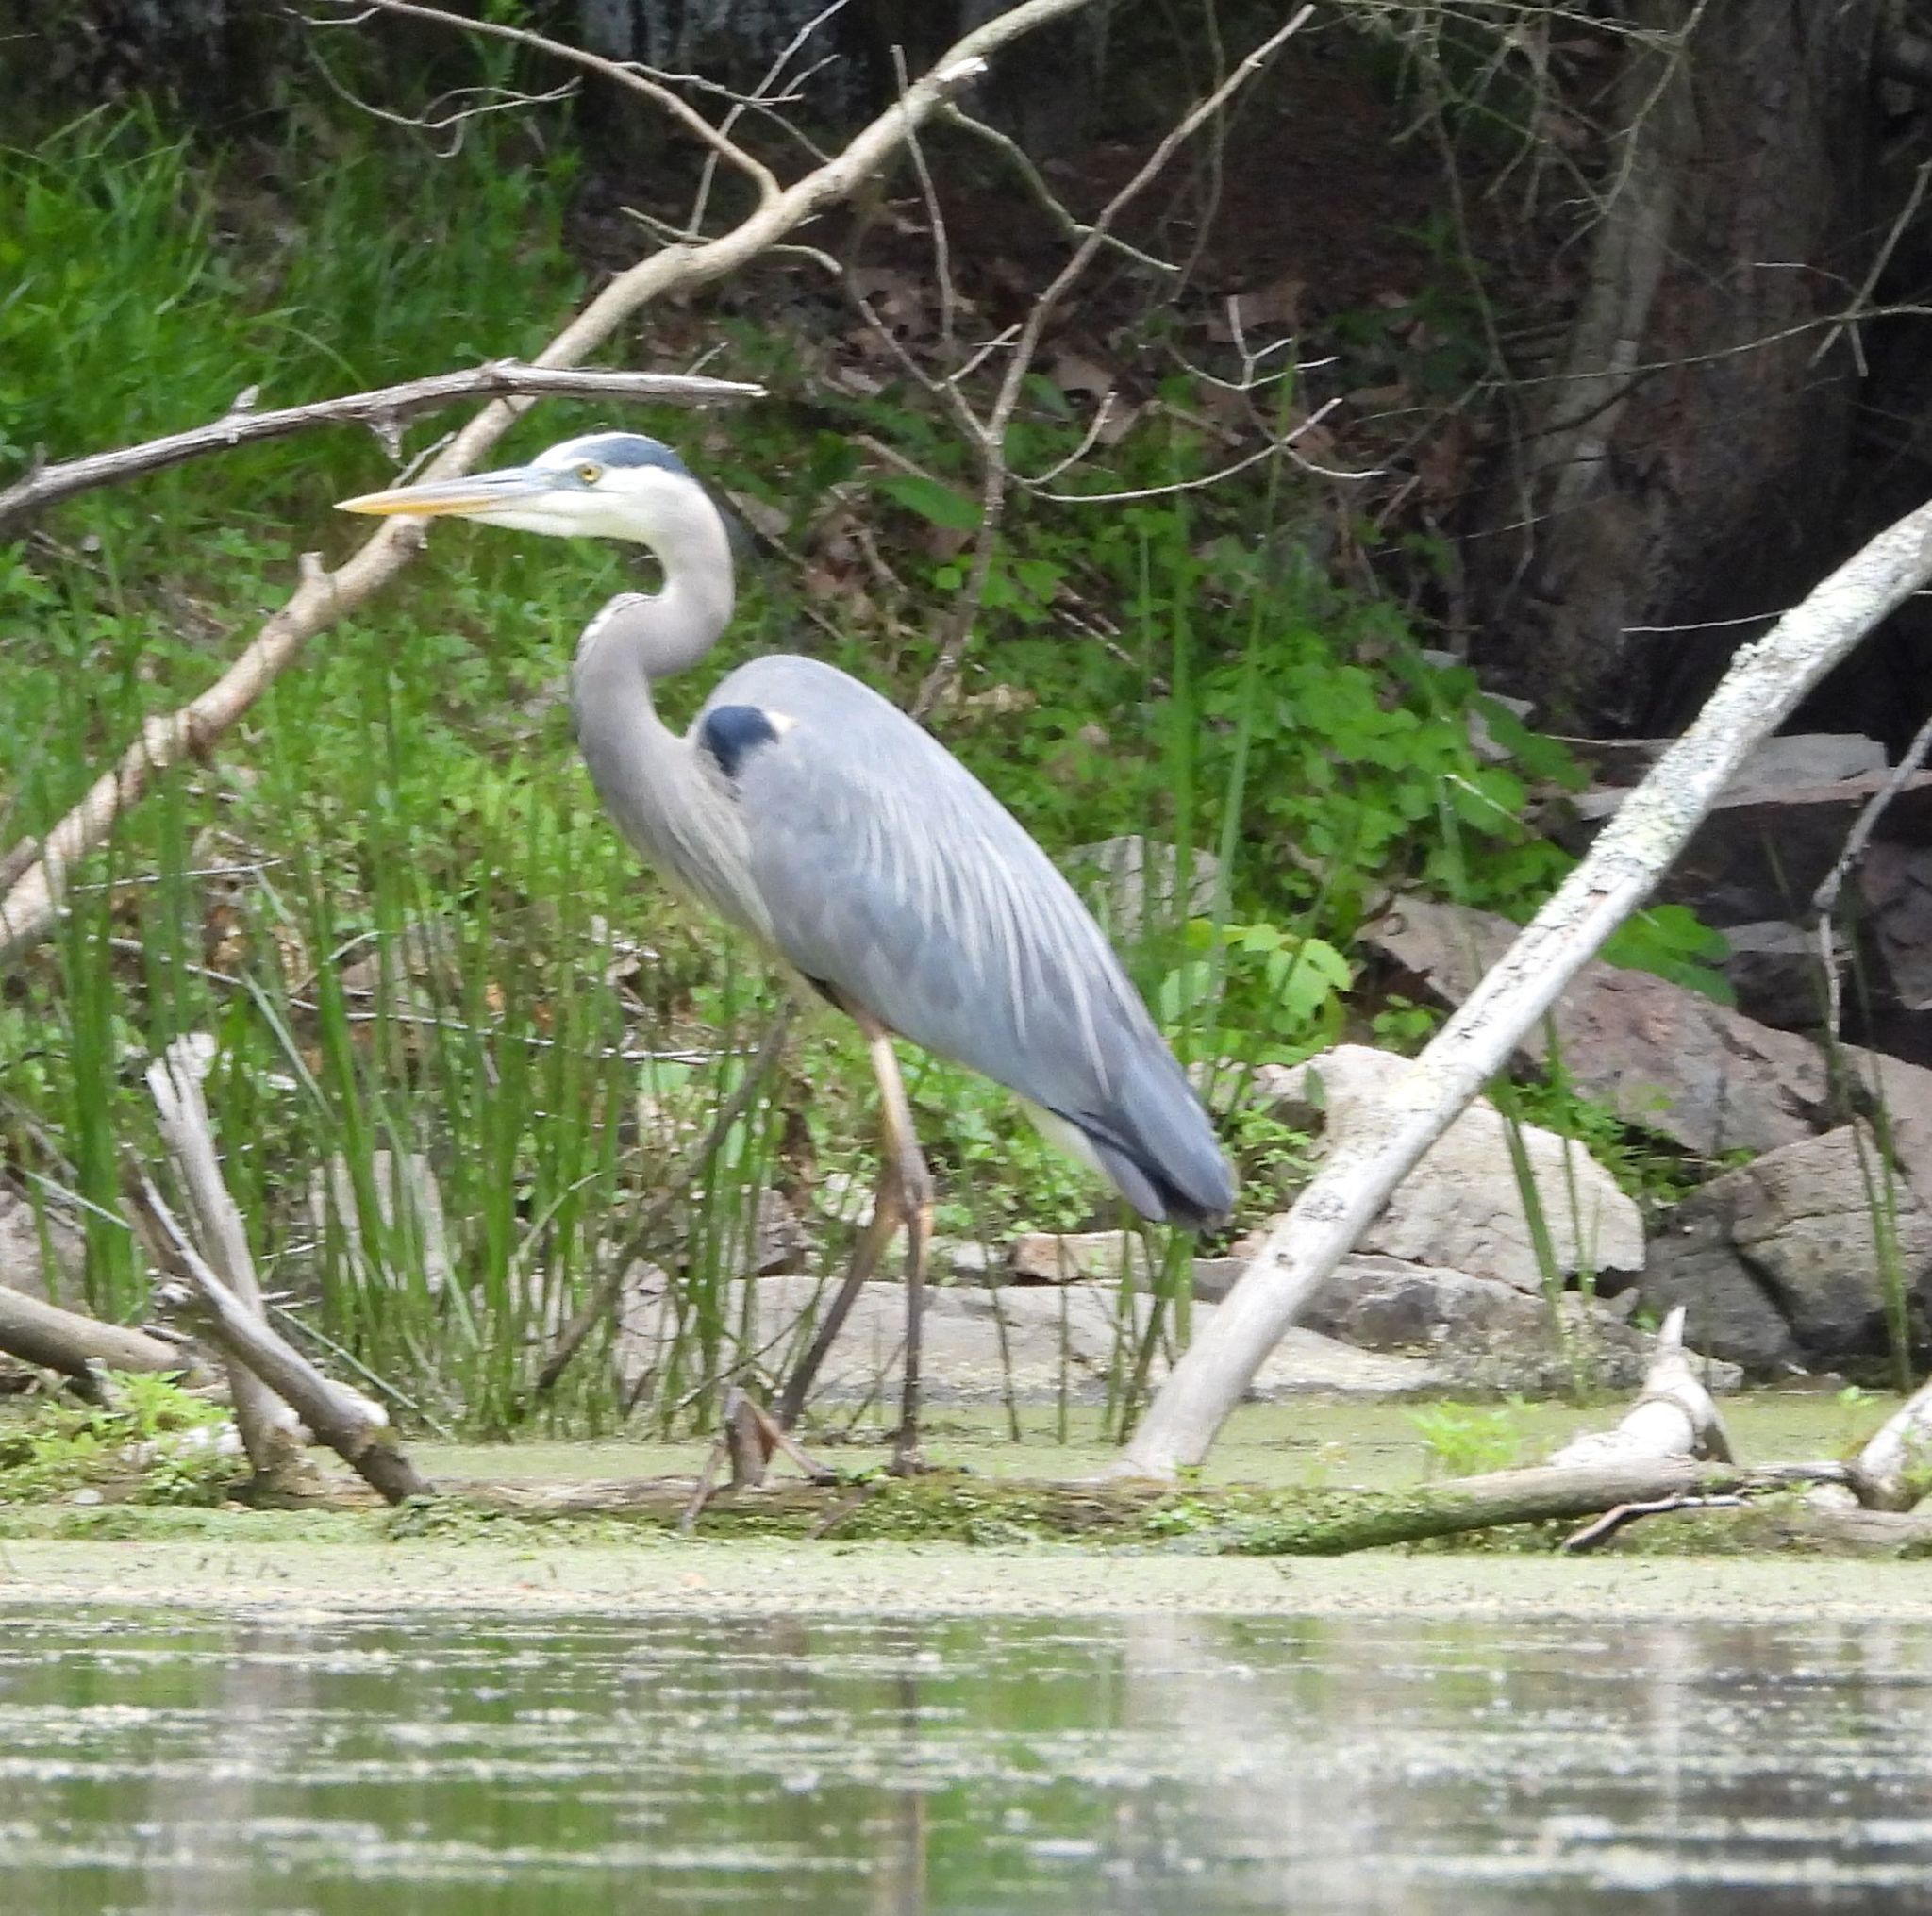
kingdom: Animalia
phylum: Chordata
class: Aves
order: Pelecaniformes
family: Ardeidae
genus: Ardea
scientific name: Ardea herodias
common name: Great blue heron
